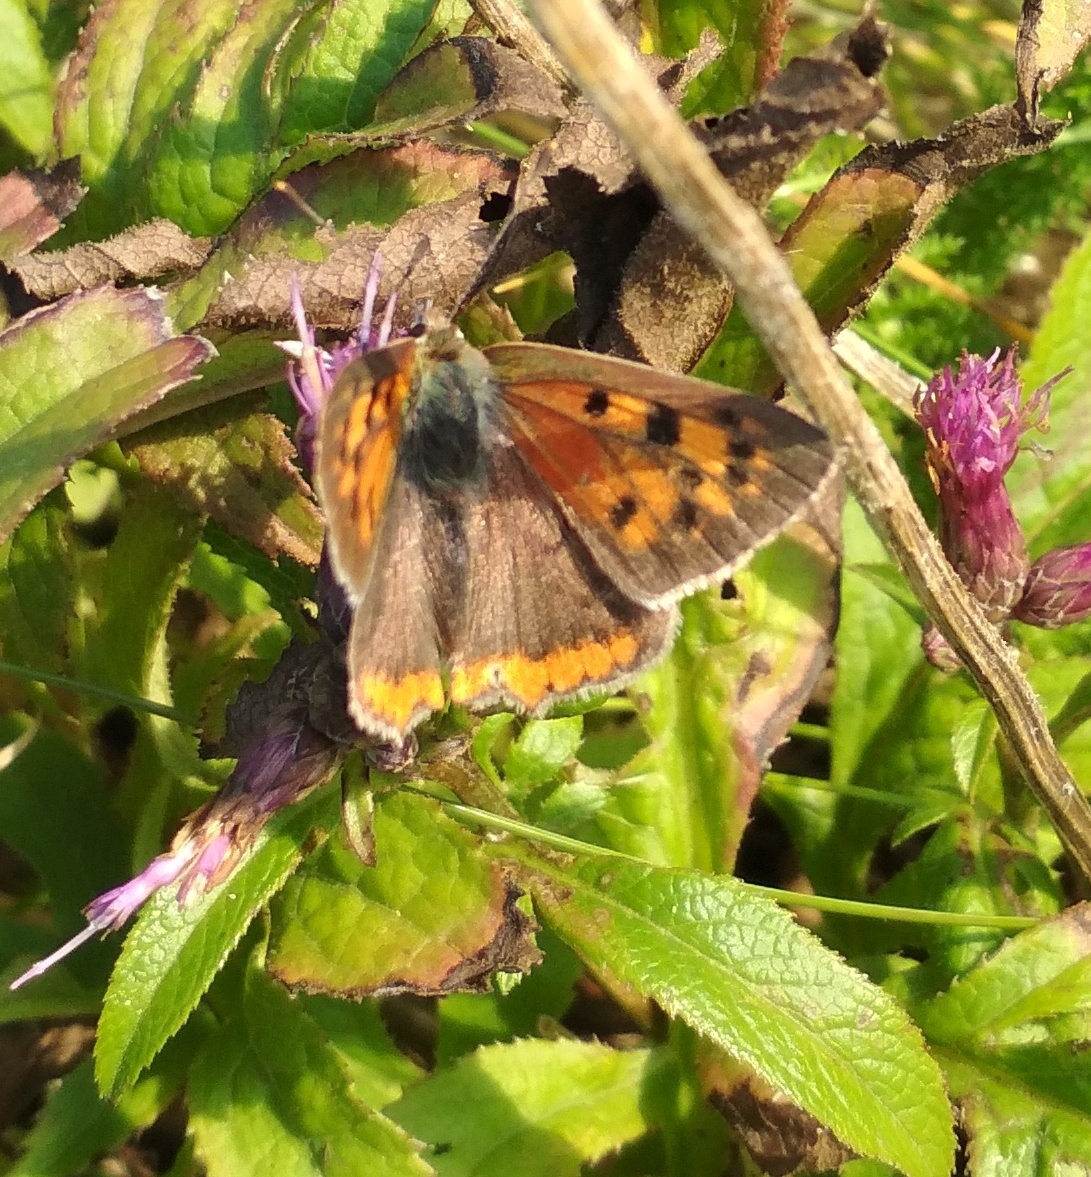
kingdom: Animalia
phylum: Arthropoda
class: Insecta
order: Lepidoptera
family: Lycaenidae
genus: Lycaena
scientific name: Lycaena phlaeas
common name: Small copper
